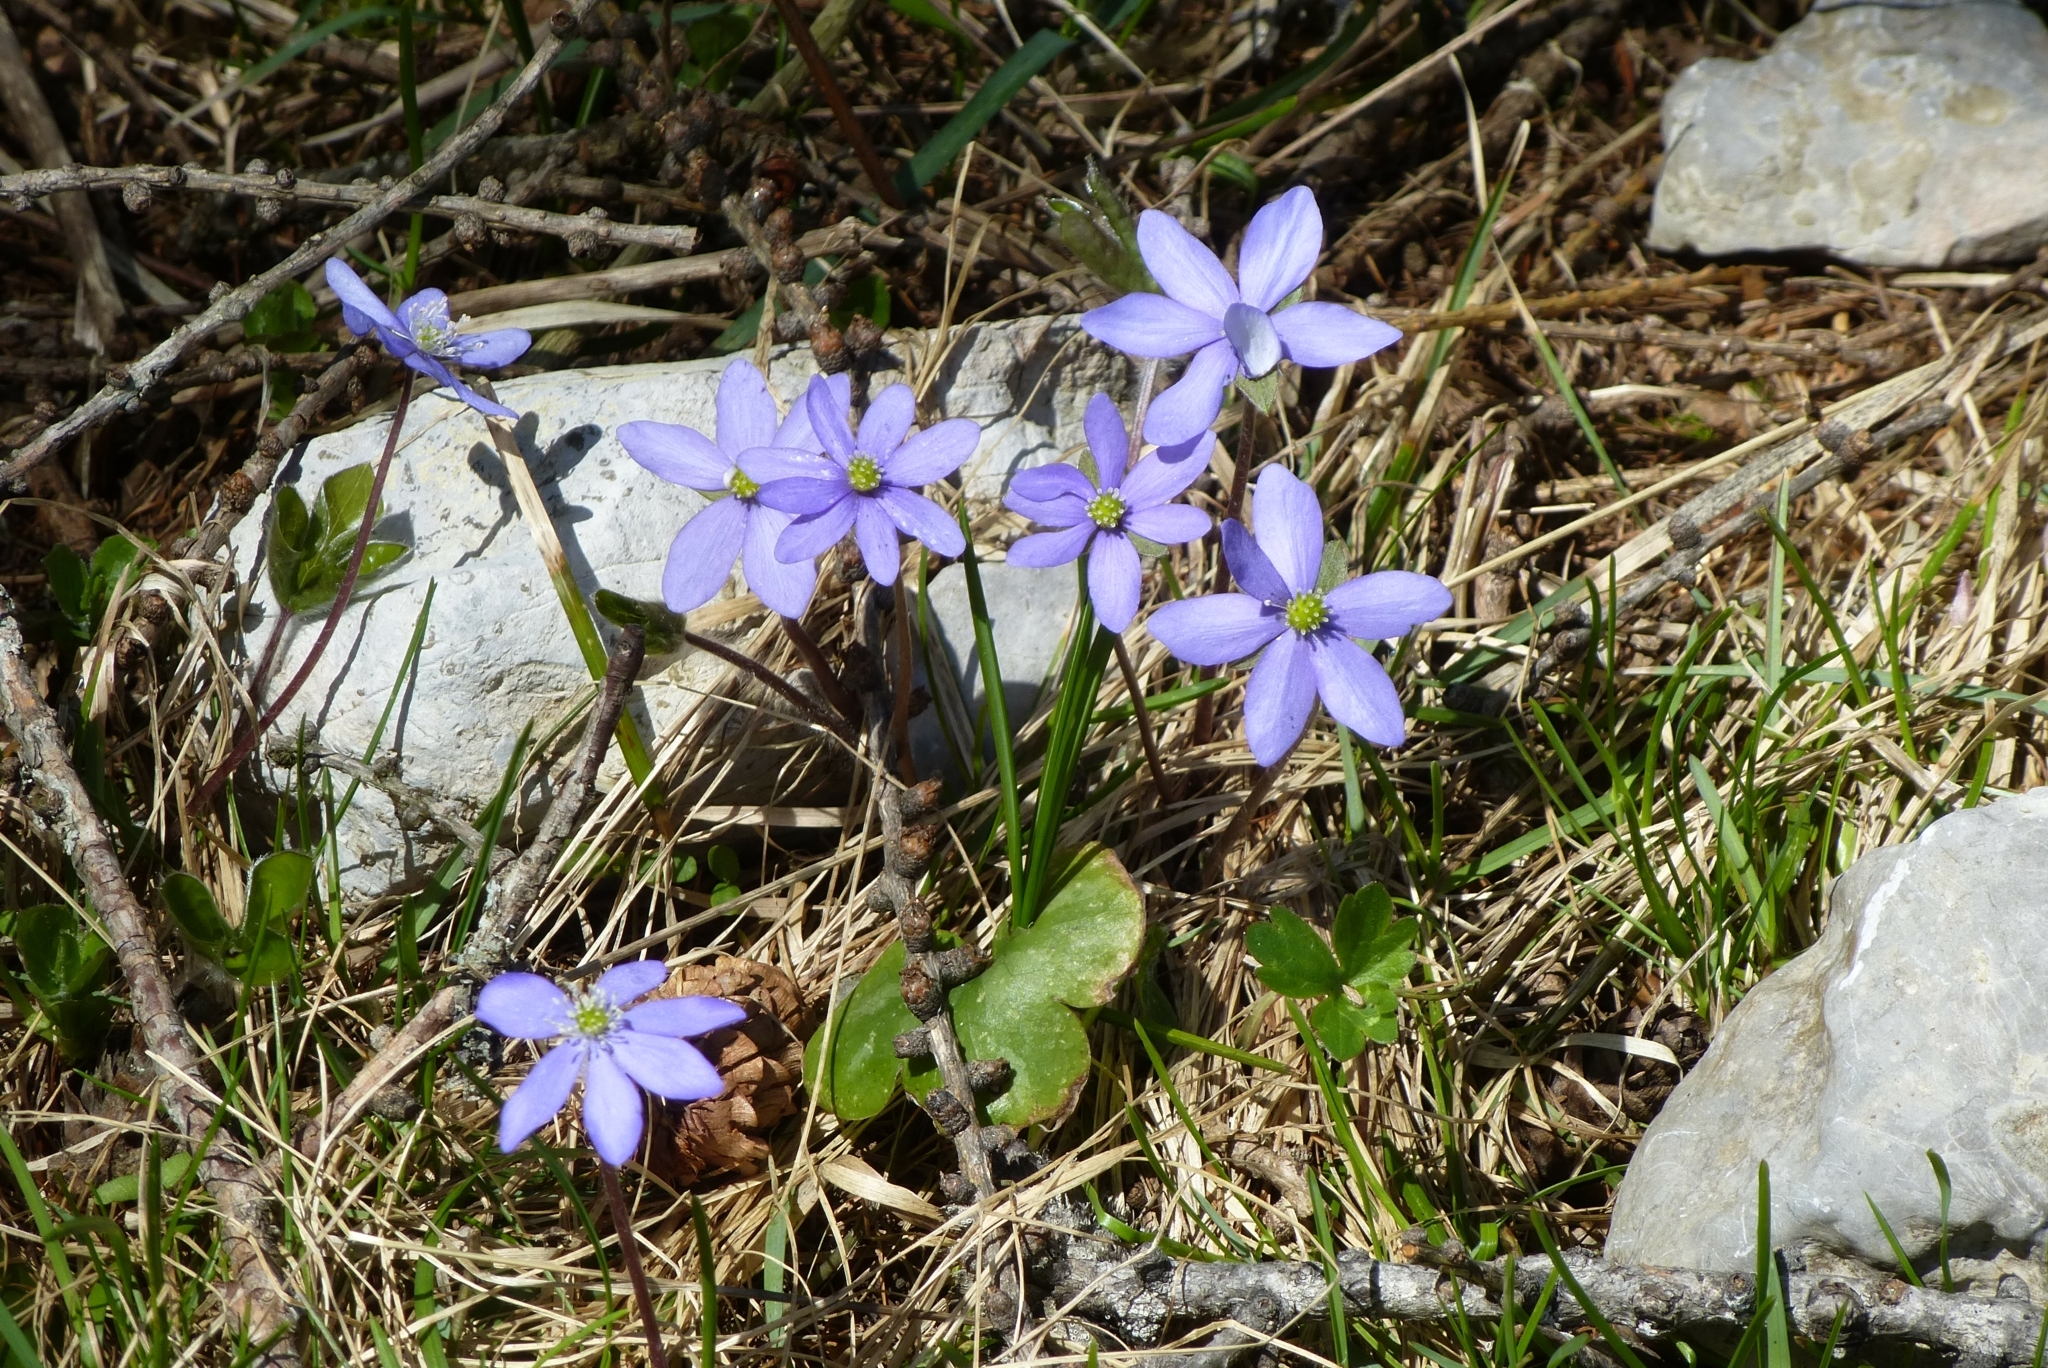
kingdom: Plantae
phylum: Tracheophyta
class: Magnoliopsida
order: Ranunculales
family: Ranunculaceae
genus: Hepatica
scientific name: Hepatica nobilis
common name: Liverleaf
